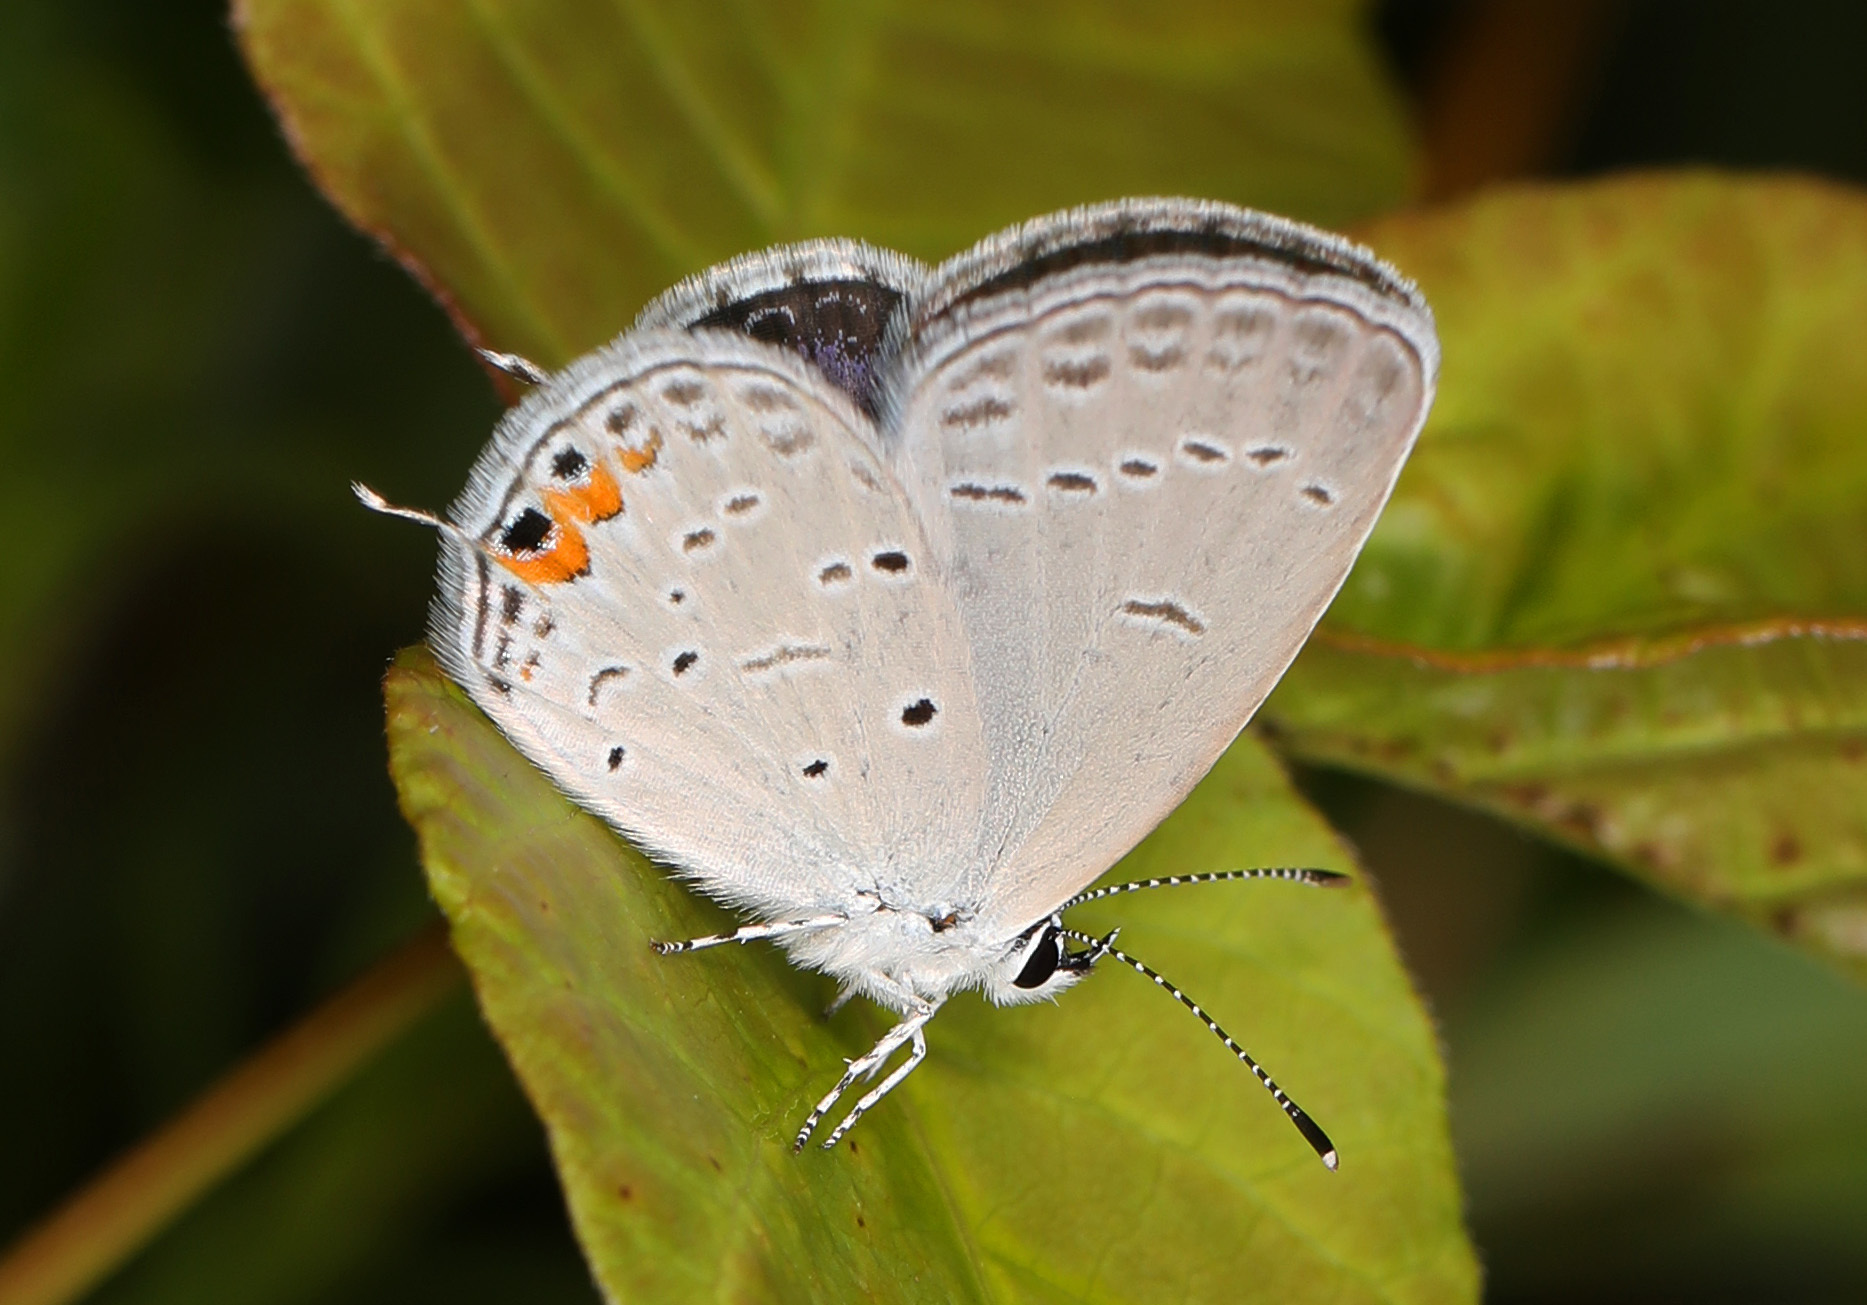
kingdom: Animalia
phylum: Arthropoda
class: Insecta
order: Lepidoptera
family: Lycaenidae
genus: Elkalyce
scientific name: Elkalyce comyntas
